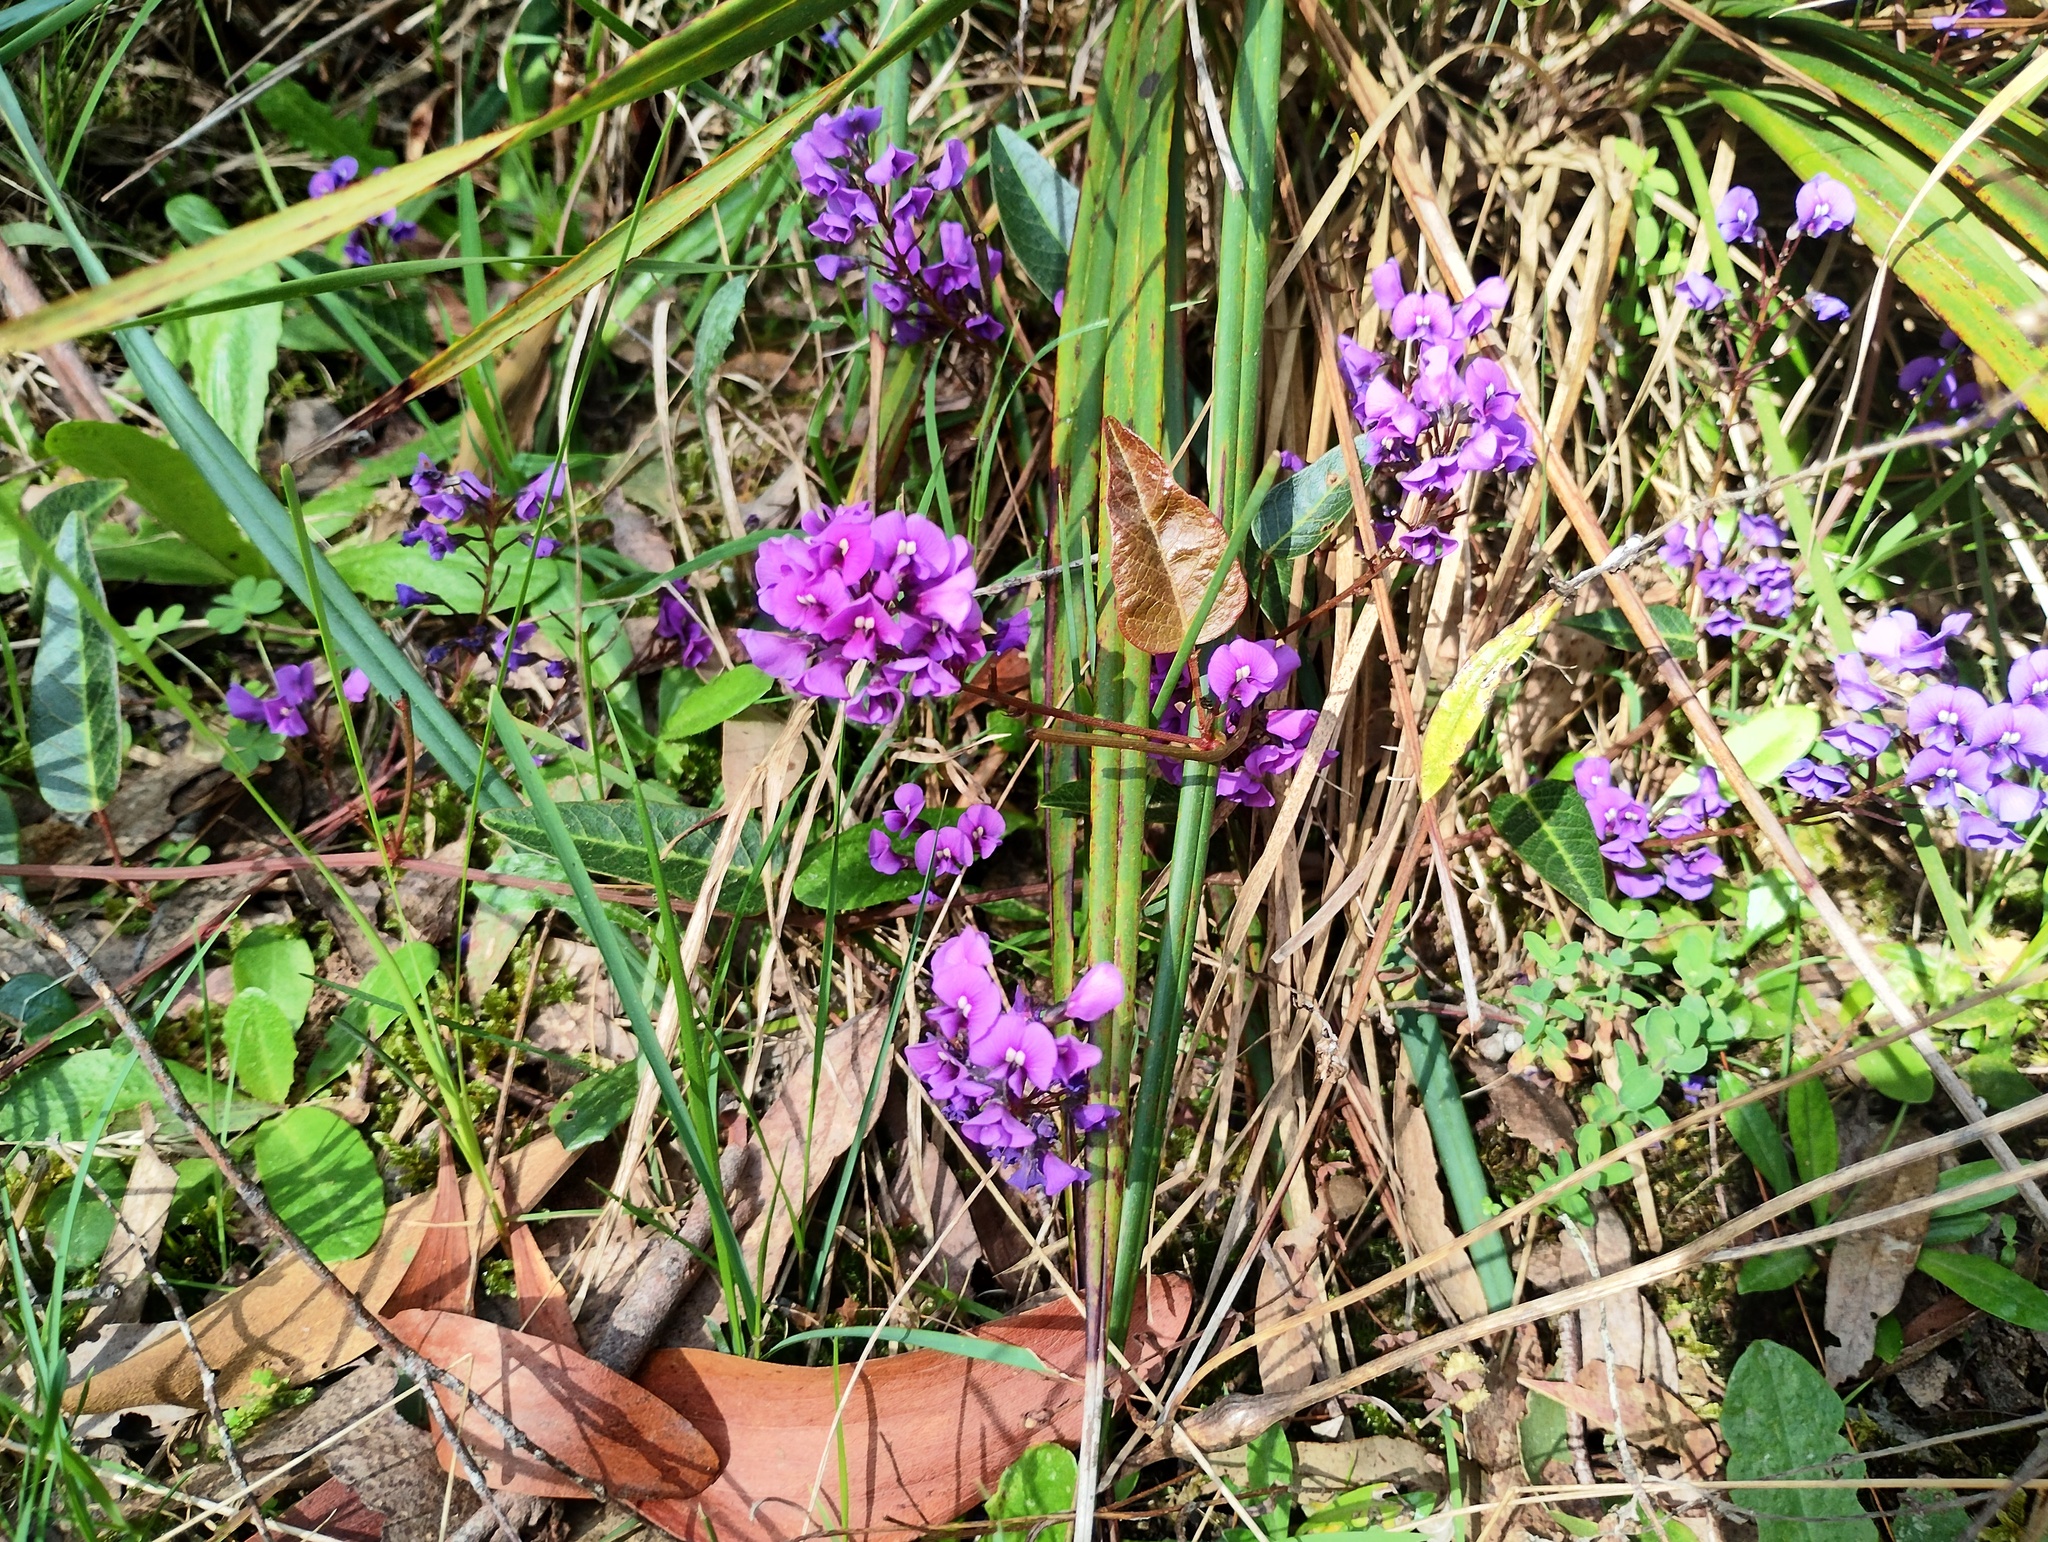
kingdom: Plantae
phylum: Tracheophyta
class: Magnoliopsida
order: Fabales
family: Fabaceae
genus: Hardenbergia
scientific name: Hardenbergia violacea
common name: Coral-pea
